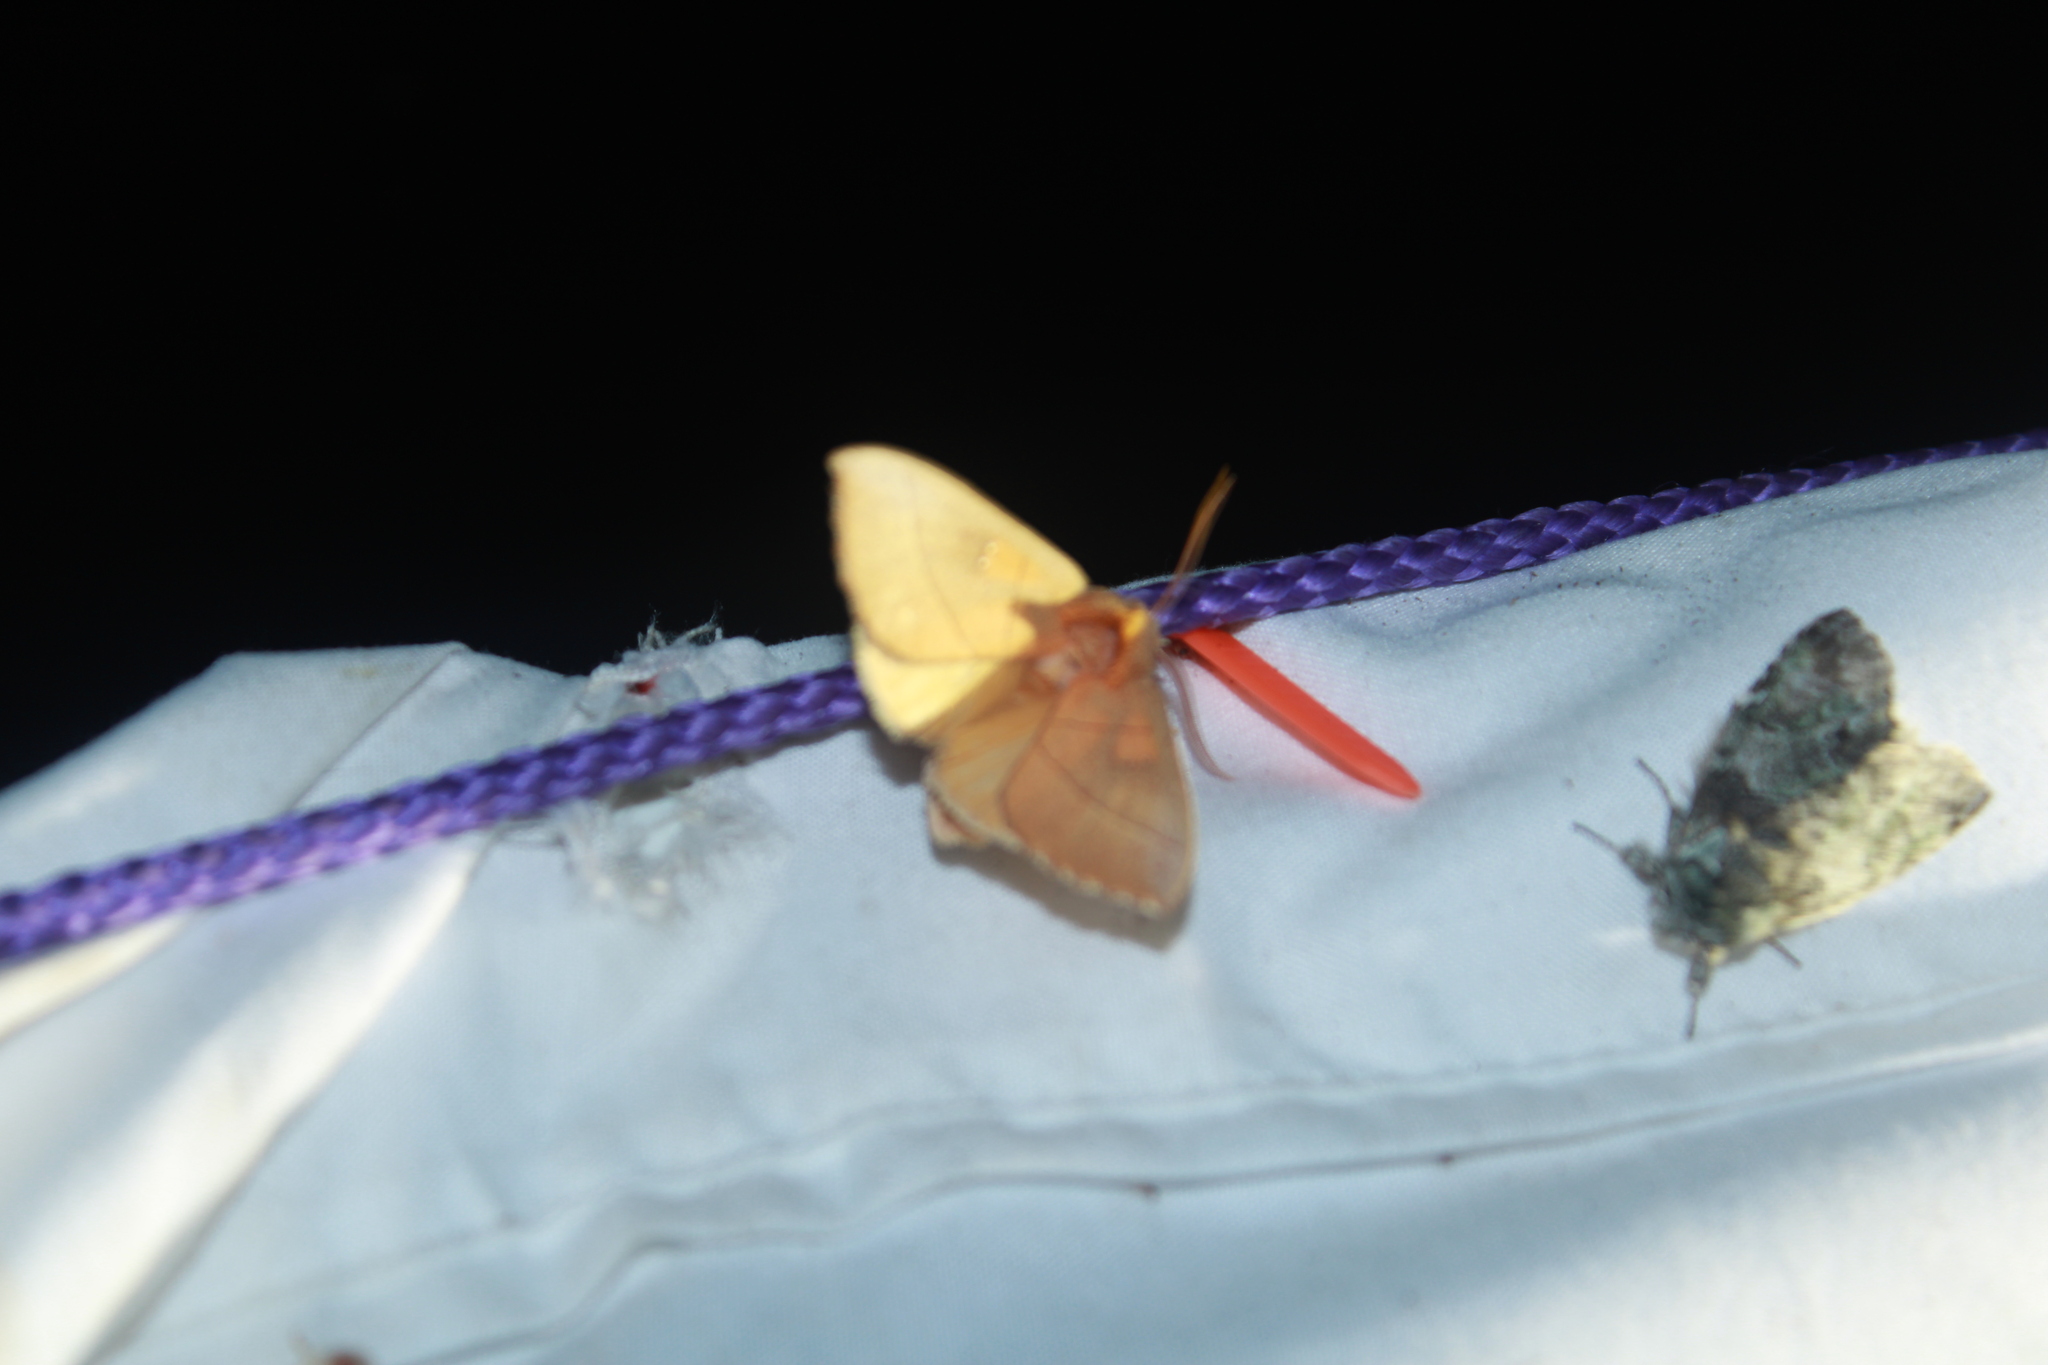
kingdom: Animalia
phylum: Arthropoda
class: Insecta
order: Lepidoptera
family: Notodontidae
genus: Nadata
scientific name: Nadata gibbosa
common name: White-dotted prominent
